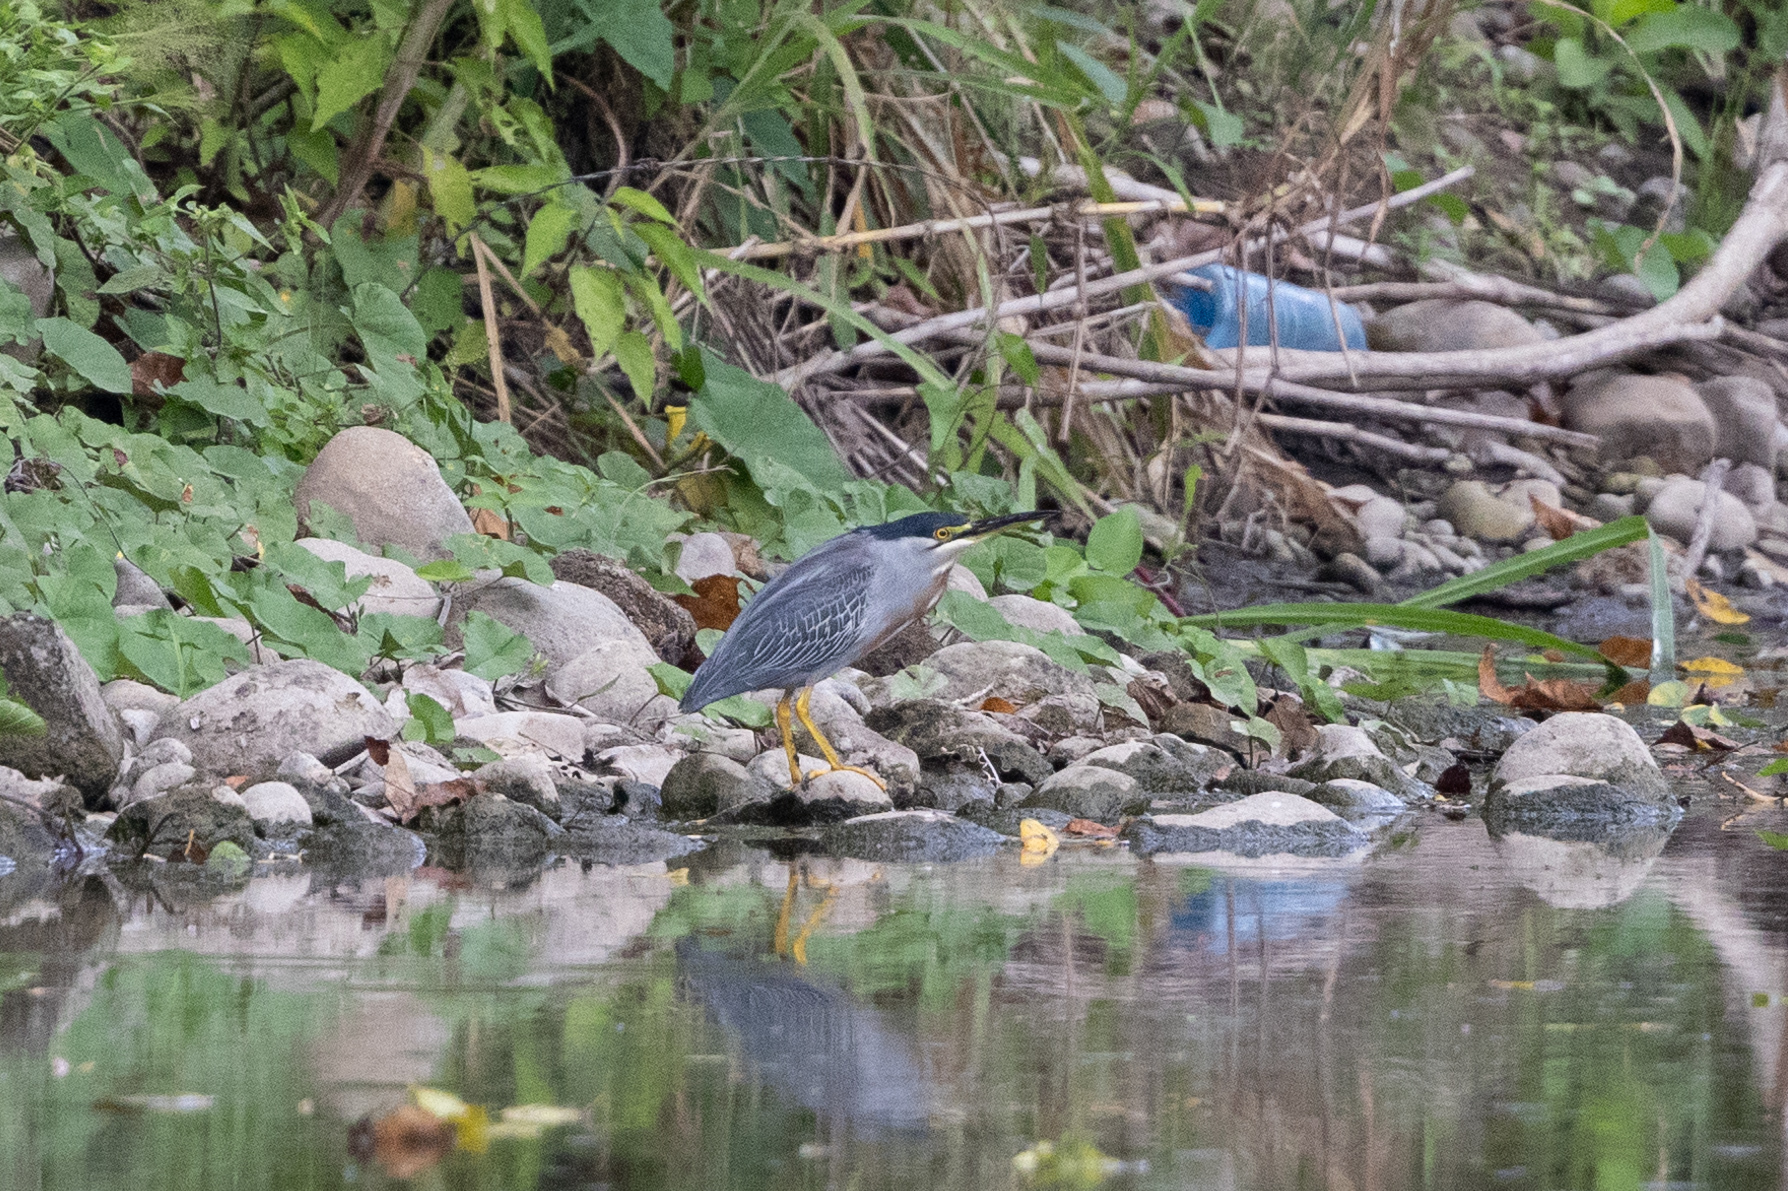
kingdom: Animalia
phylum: Chordata
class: Aves
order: Pelecaniformes
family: Ardeidae
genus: Butorides
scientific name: Butorides striata
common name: Striated heron
